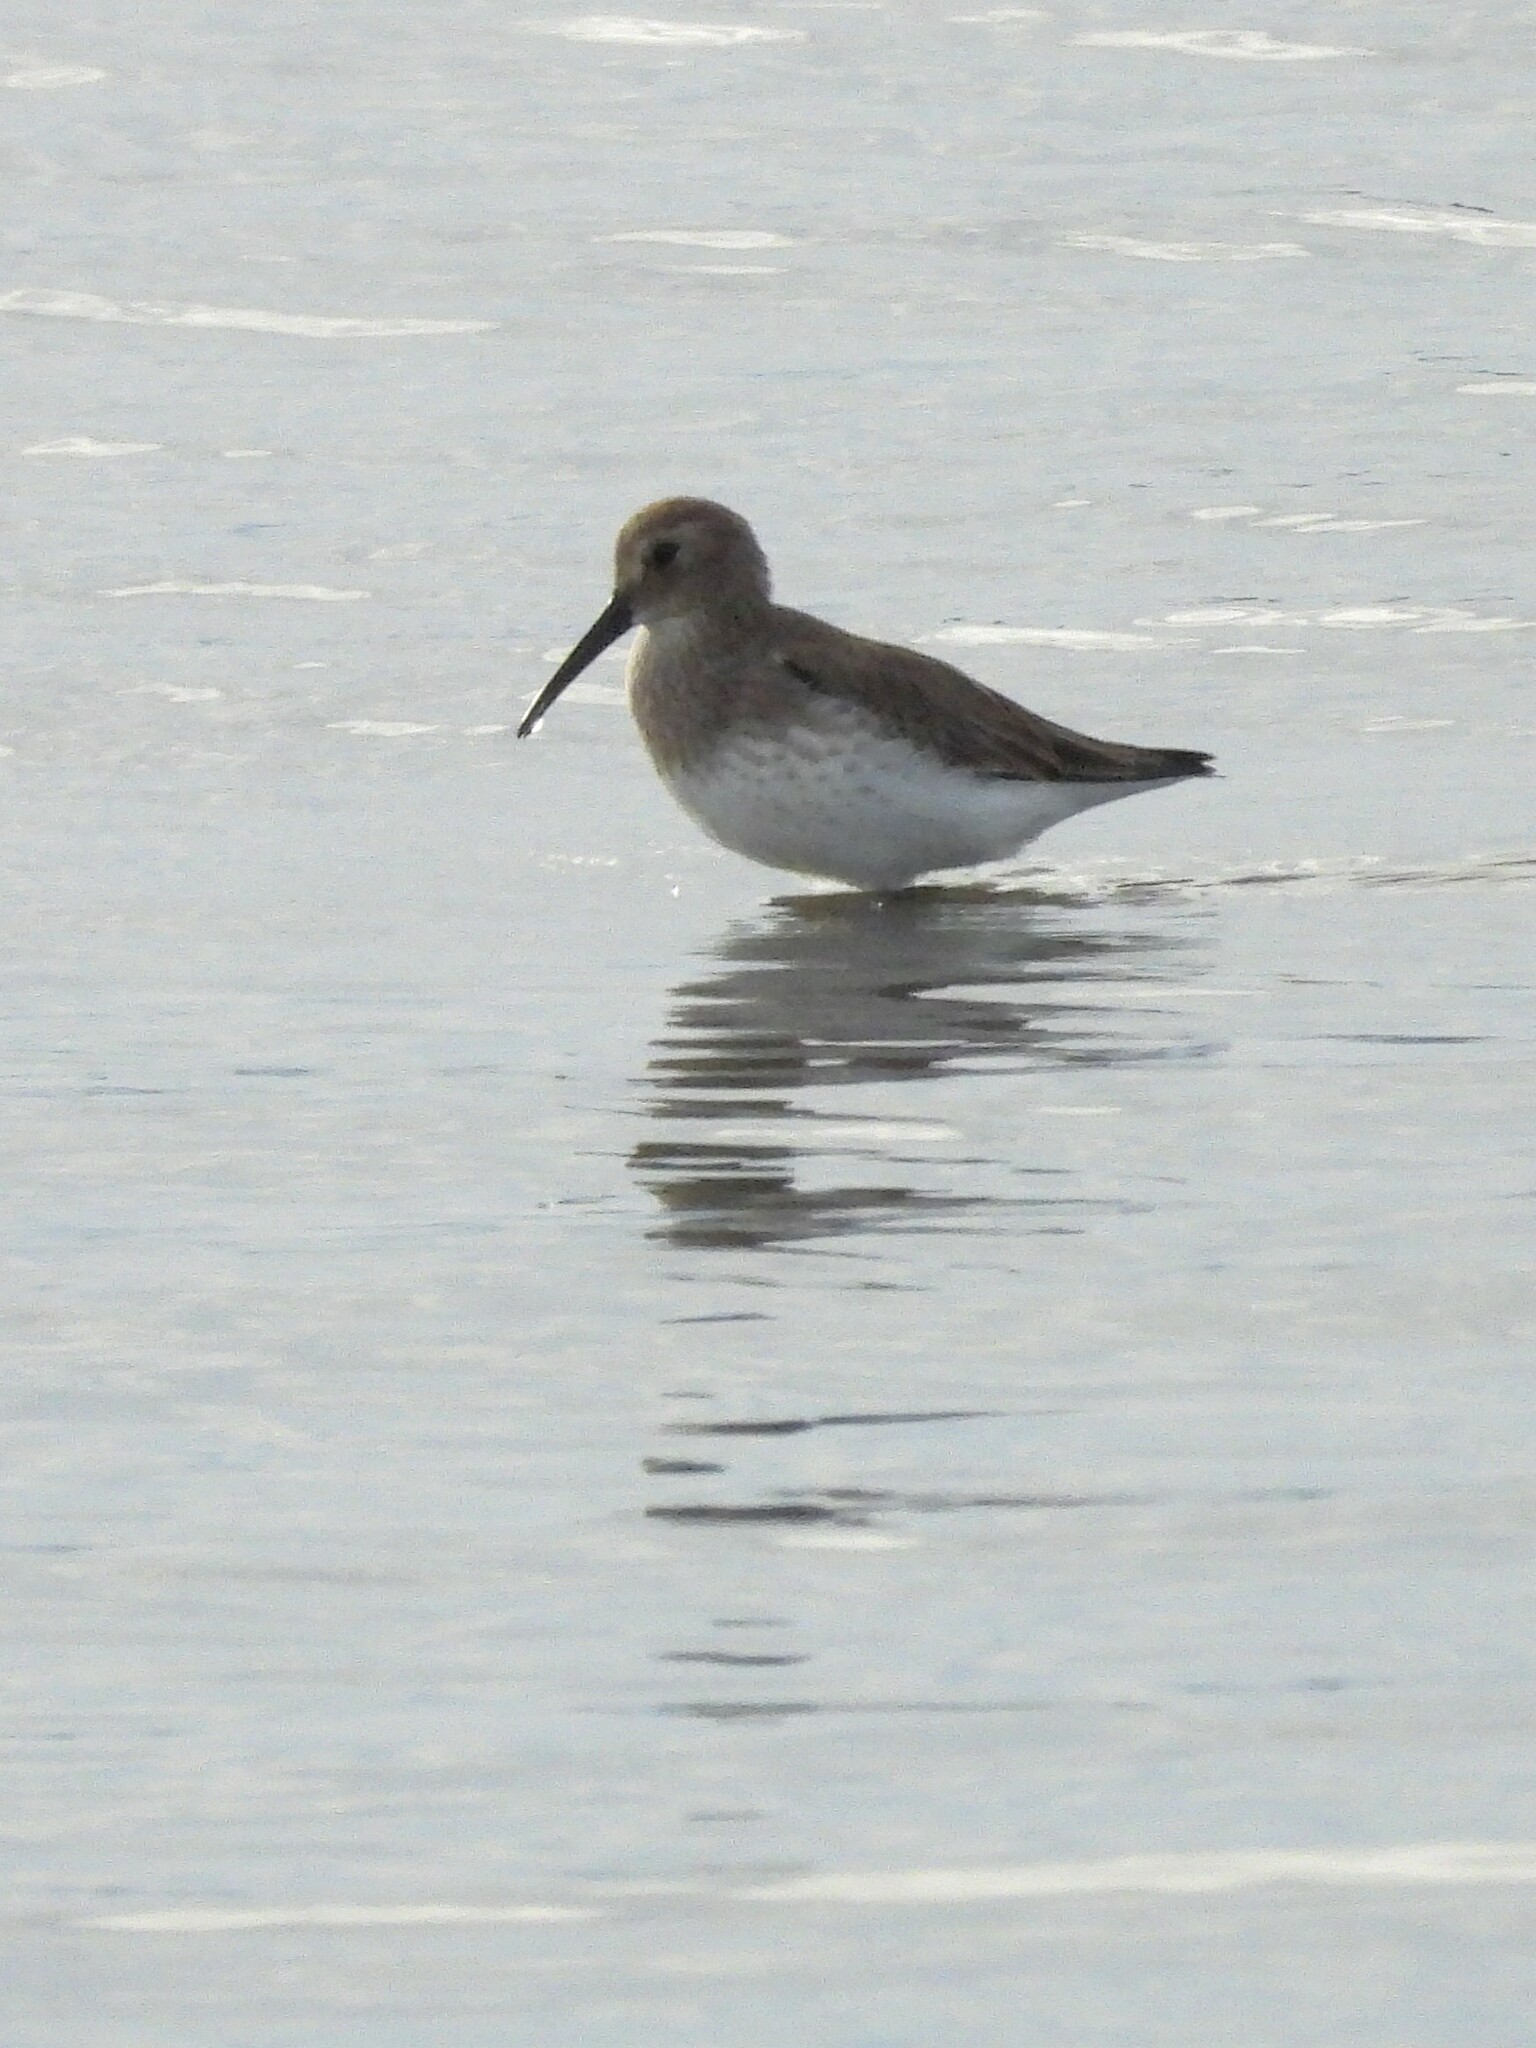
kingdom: Animalia
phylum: Chordata
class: Aves
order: Charadriiformes
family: Scolopacidae
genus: Calidris
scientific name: Calidris alpina
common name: Dunlin
